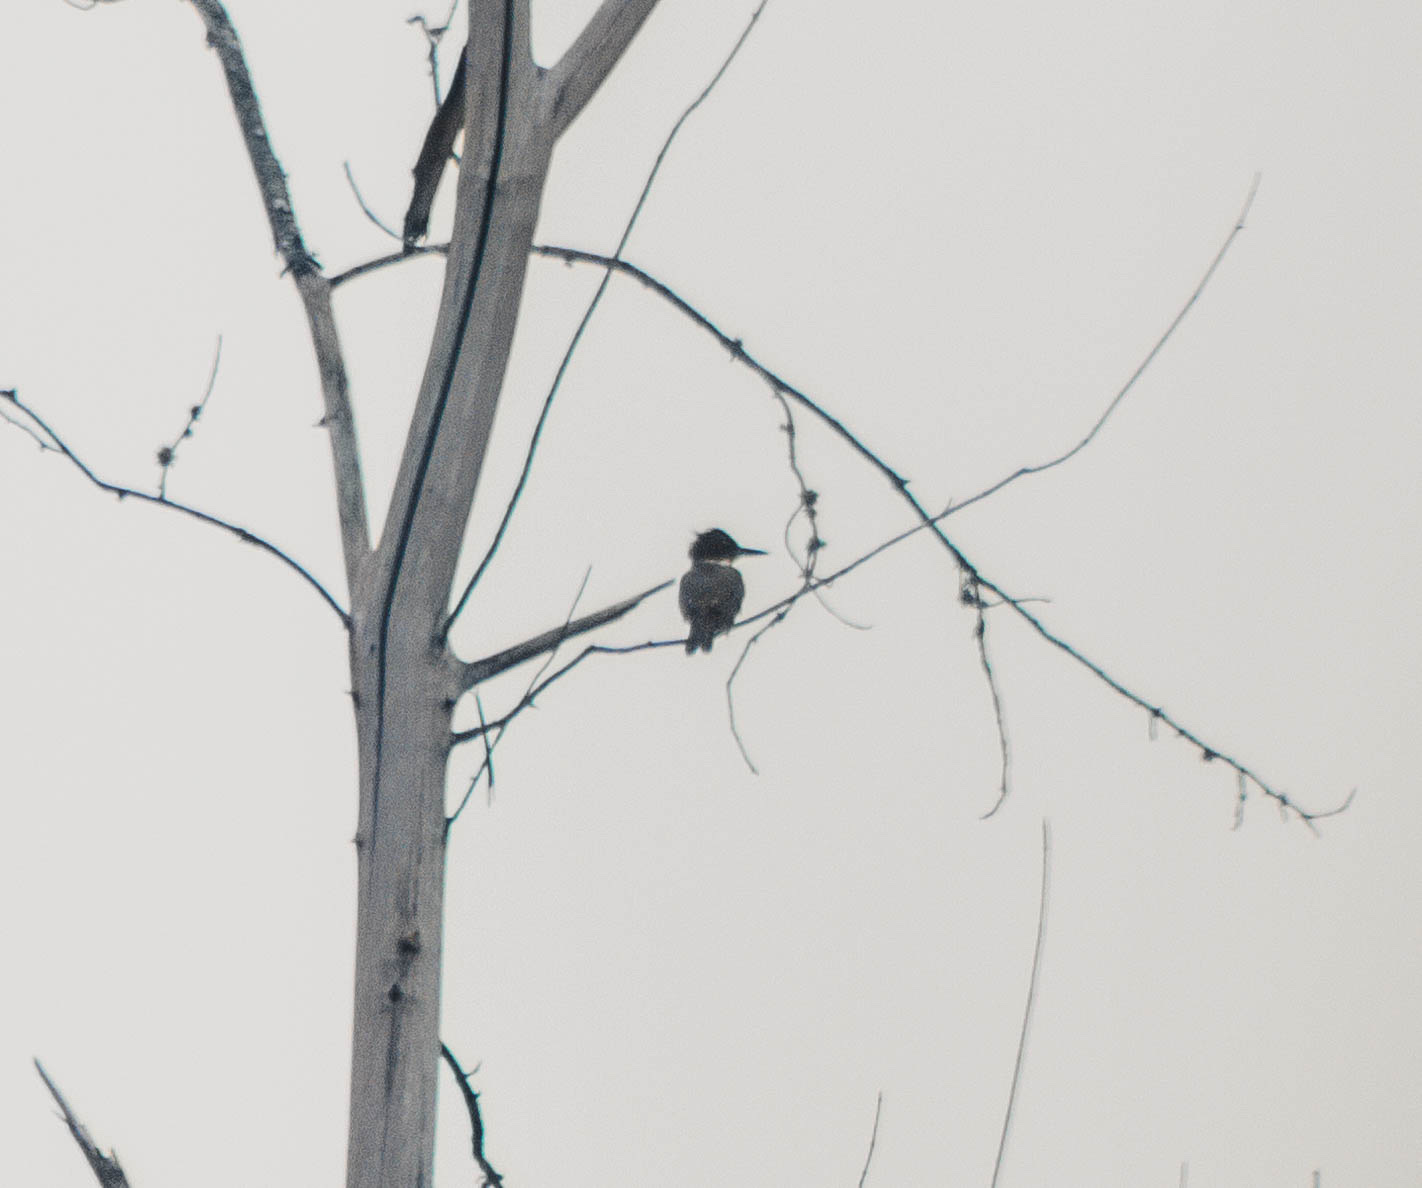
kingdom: Animalia
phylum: Chordata
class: Aves
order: Coraciiformes
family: Alcedinidae
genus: Megaceryle
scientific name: Megaceryle alcyon
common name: Belted kingfisher
